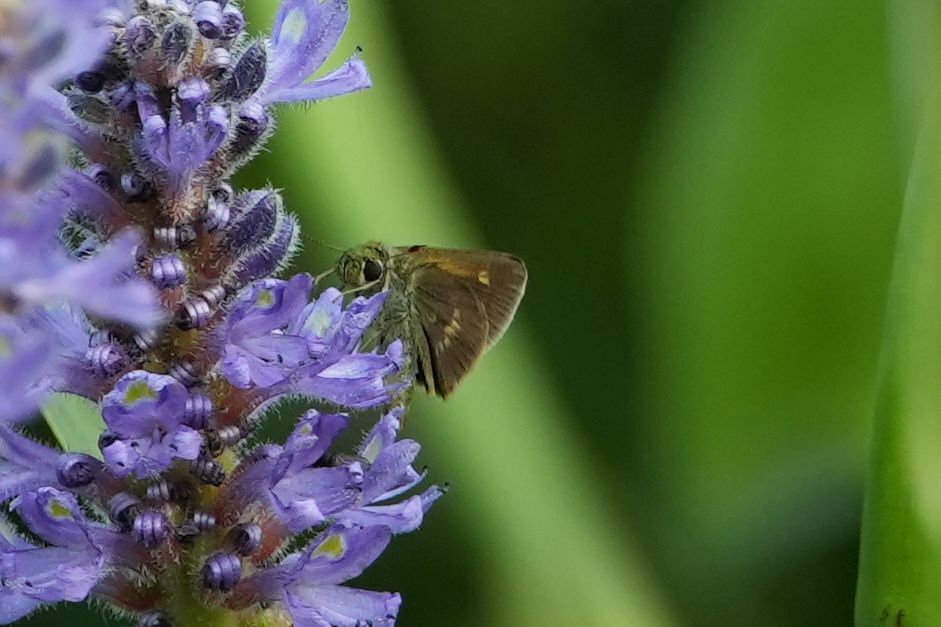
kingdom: Animalia
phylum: Arthropoda
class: Insecta
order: Lepidoptera
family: Hesperiidae
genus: Polites
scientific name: Polites egeremet
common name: Northern broken-dash
